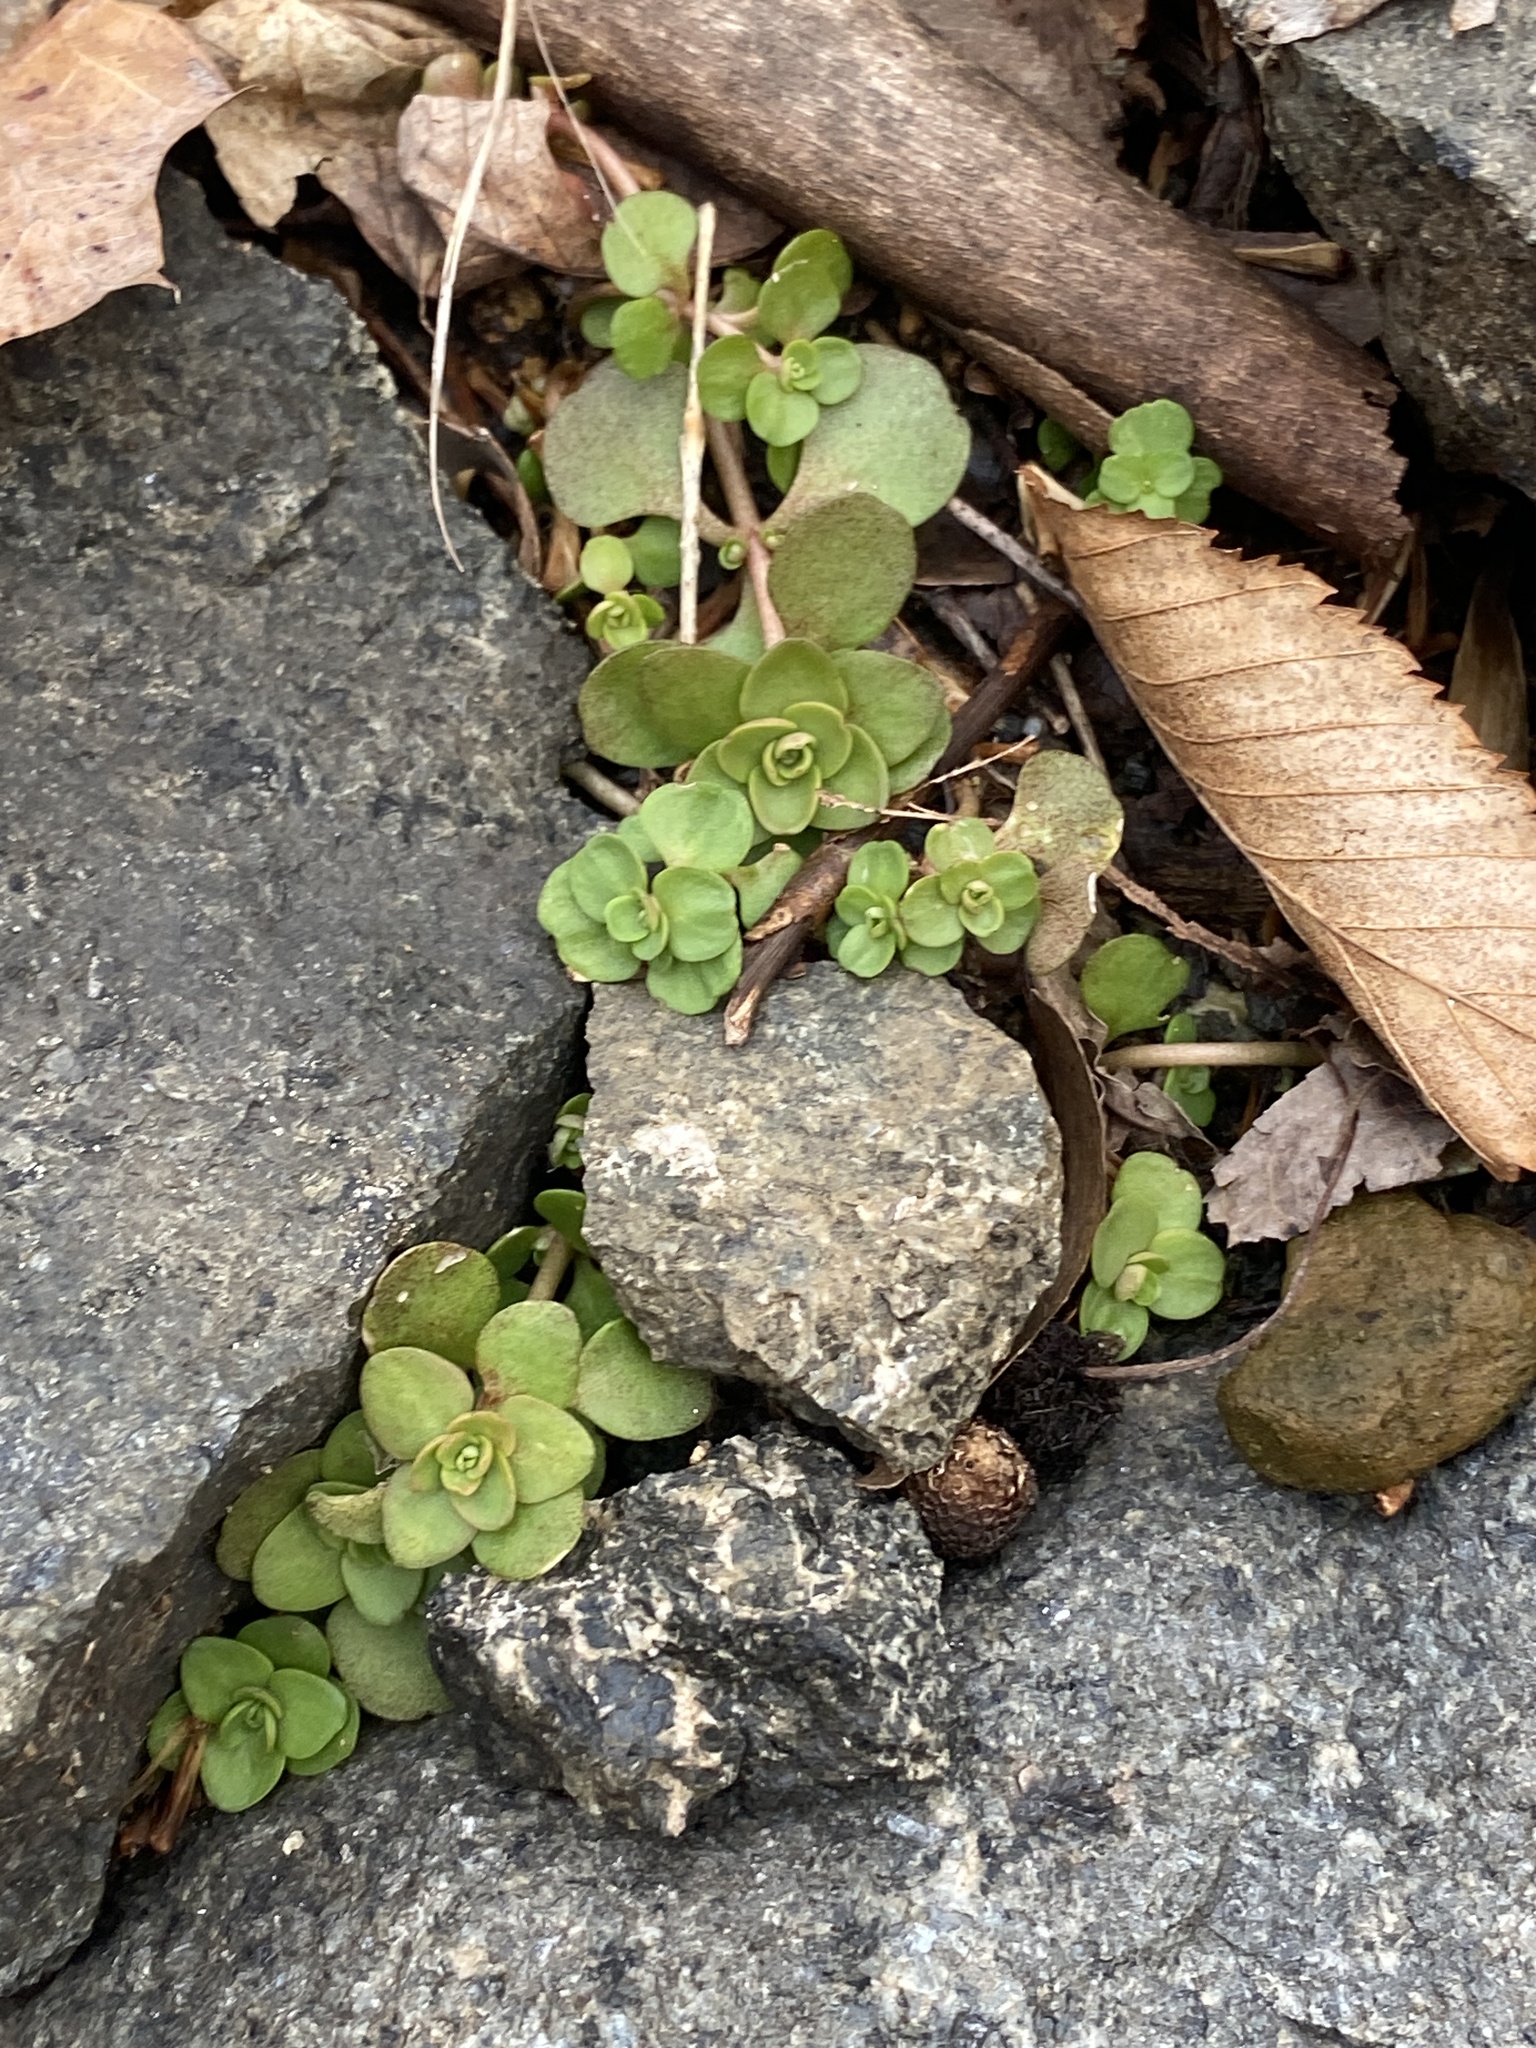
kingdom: Plantae
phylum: Tracheophyta
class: Magnoliopsida
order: Saxifragales
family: Crassulaceae
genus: Sedum
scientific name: Sedum ternatum
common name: Wild stonecrop
